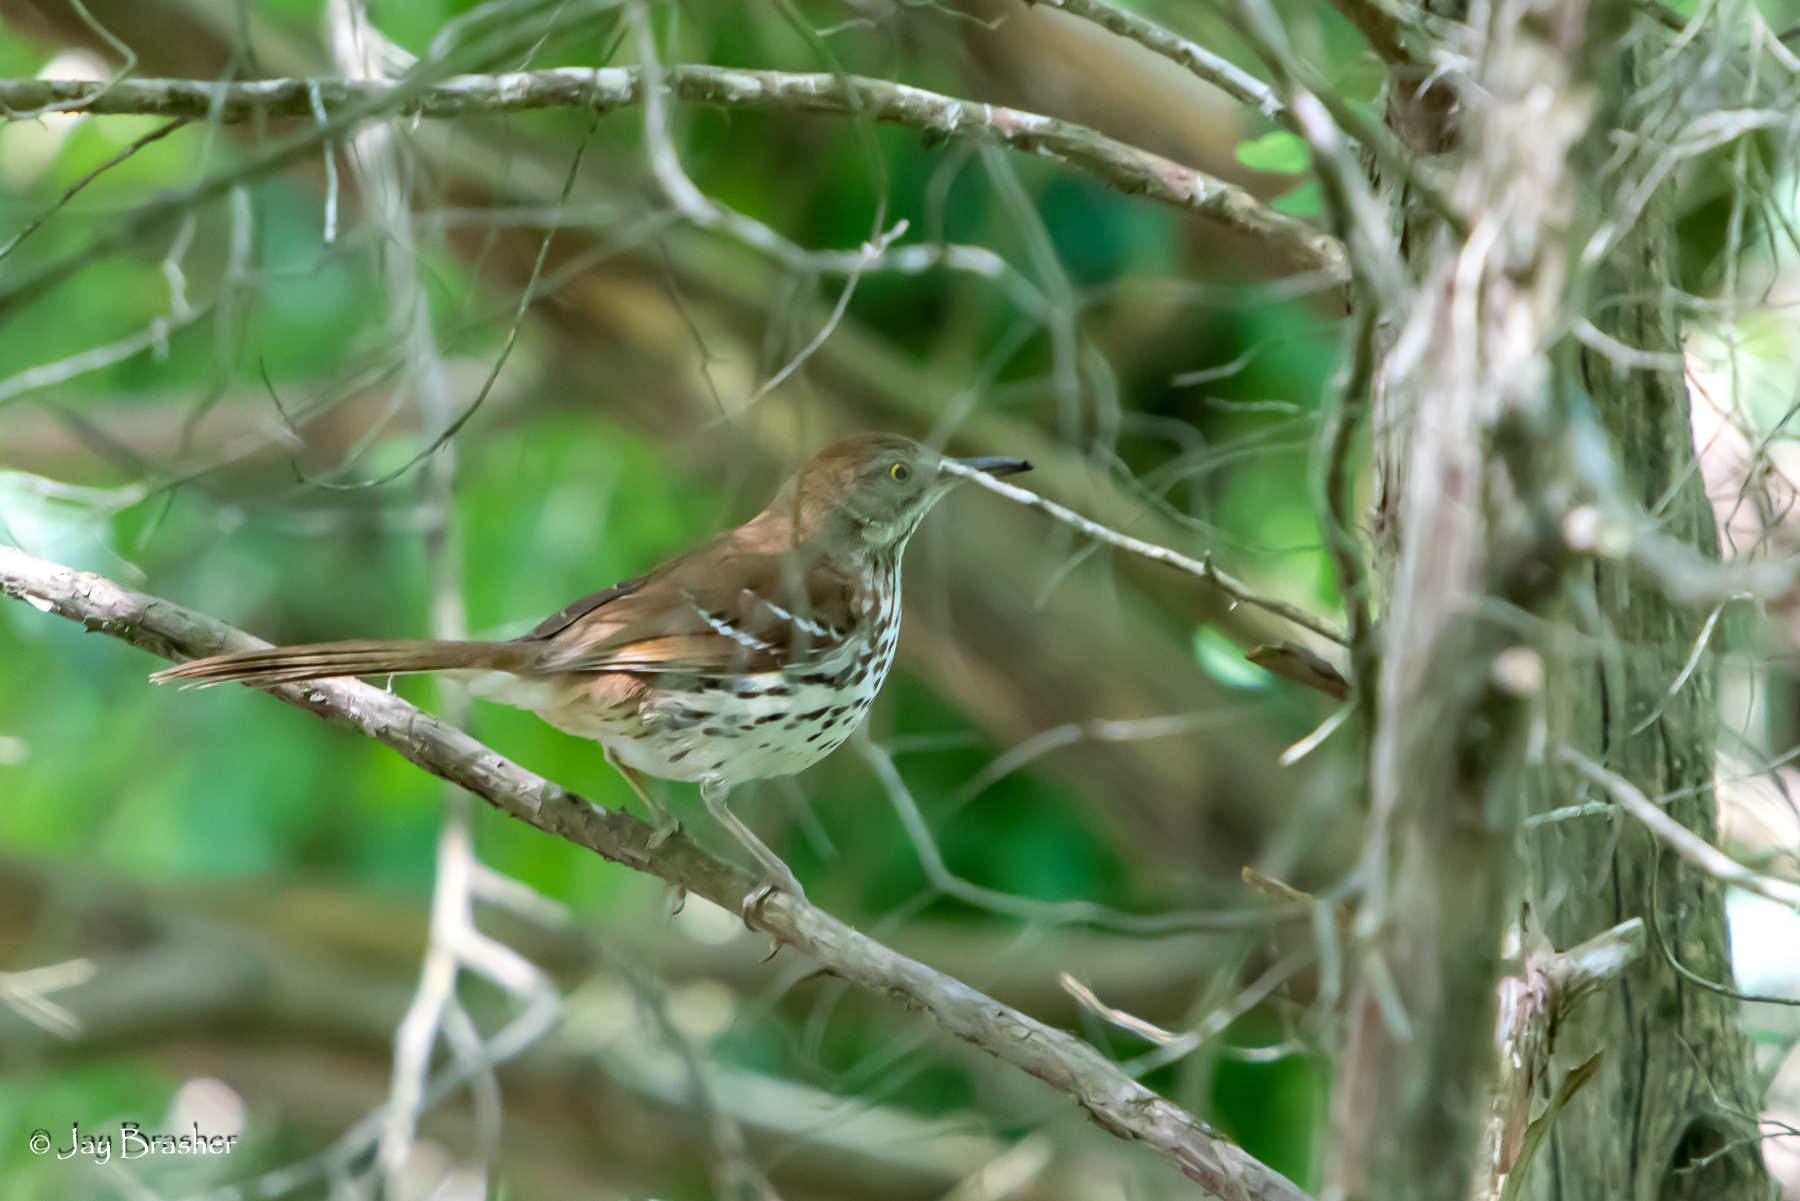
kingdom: Animalia
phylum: Chordata
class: Aves
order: Passeriformes
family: Mimidae
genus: Toxostoma
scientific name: Toxostoma rufum
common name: Brown thrasher
